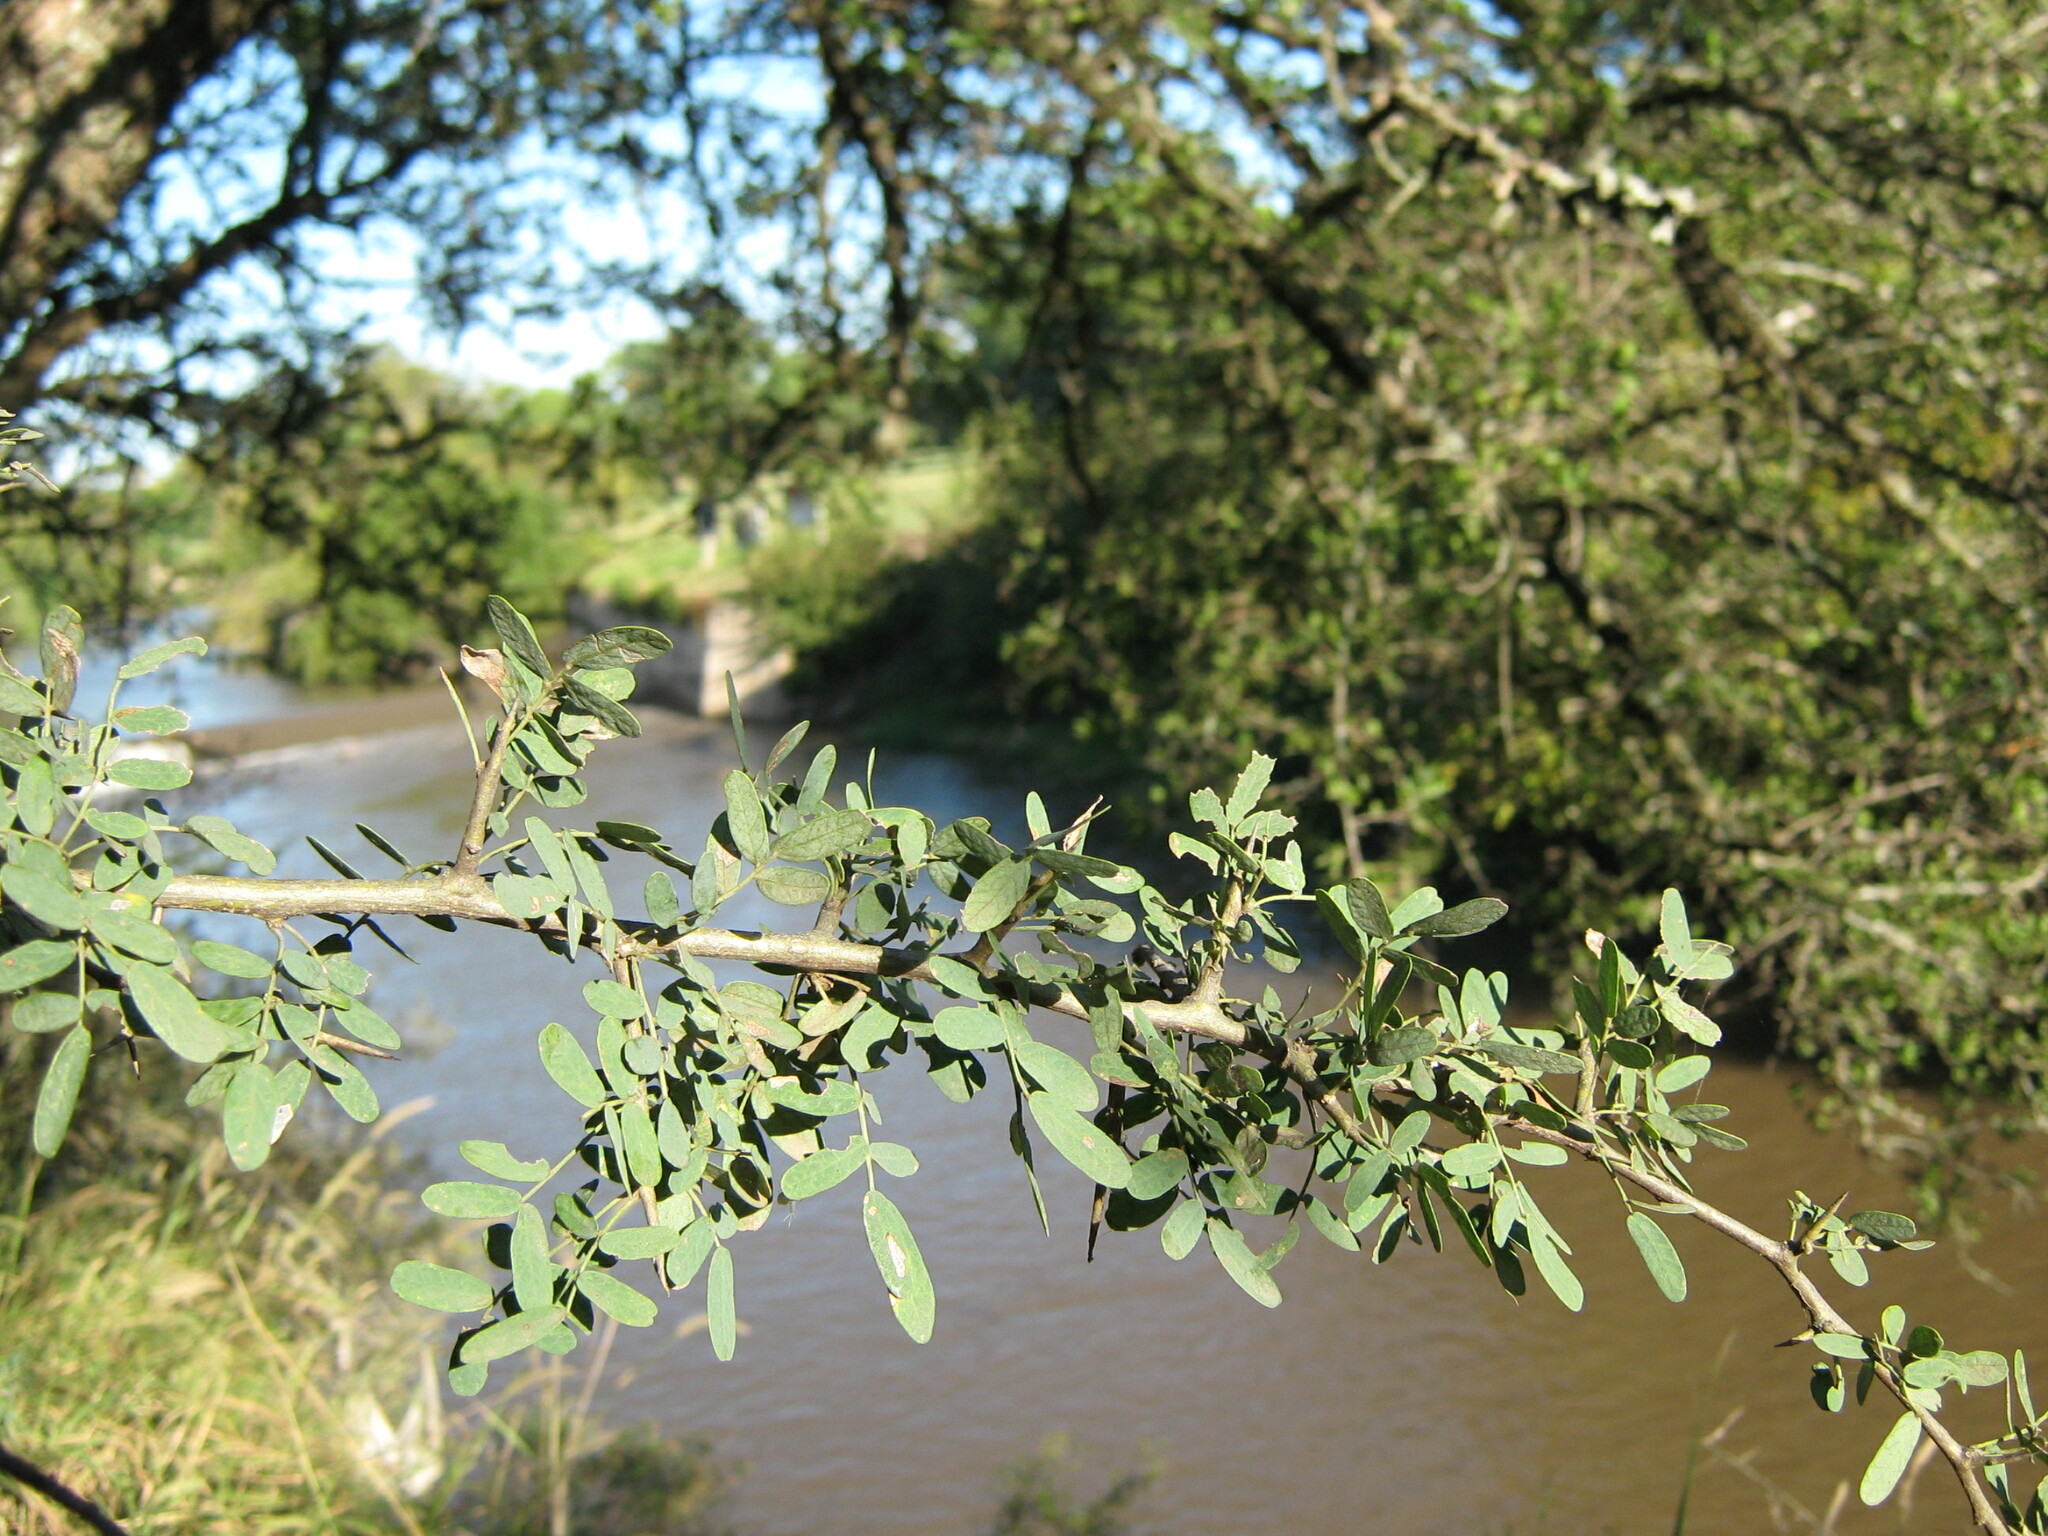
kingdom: Plantae
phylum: Tracheophyta
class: Magnoliopsida
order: Fabales
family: Fabaceae
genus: Geoffroea
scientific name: Geoffroea decorticans
